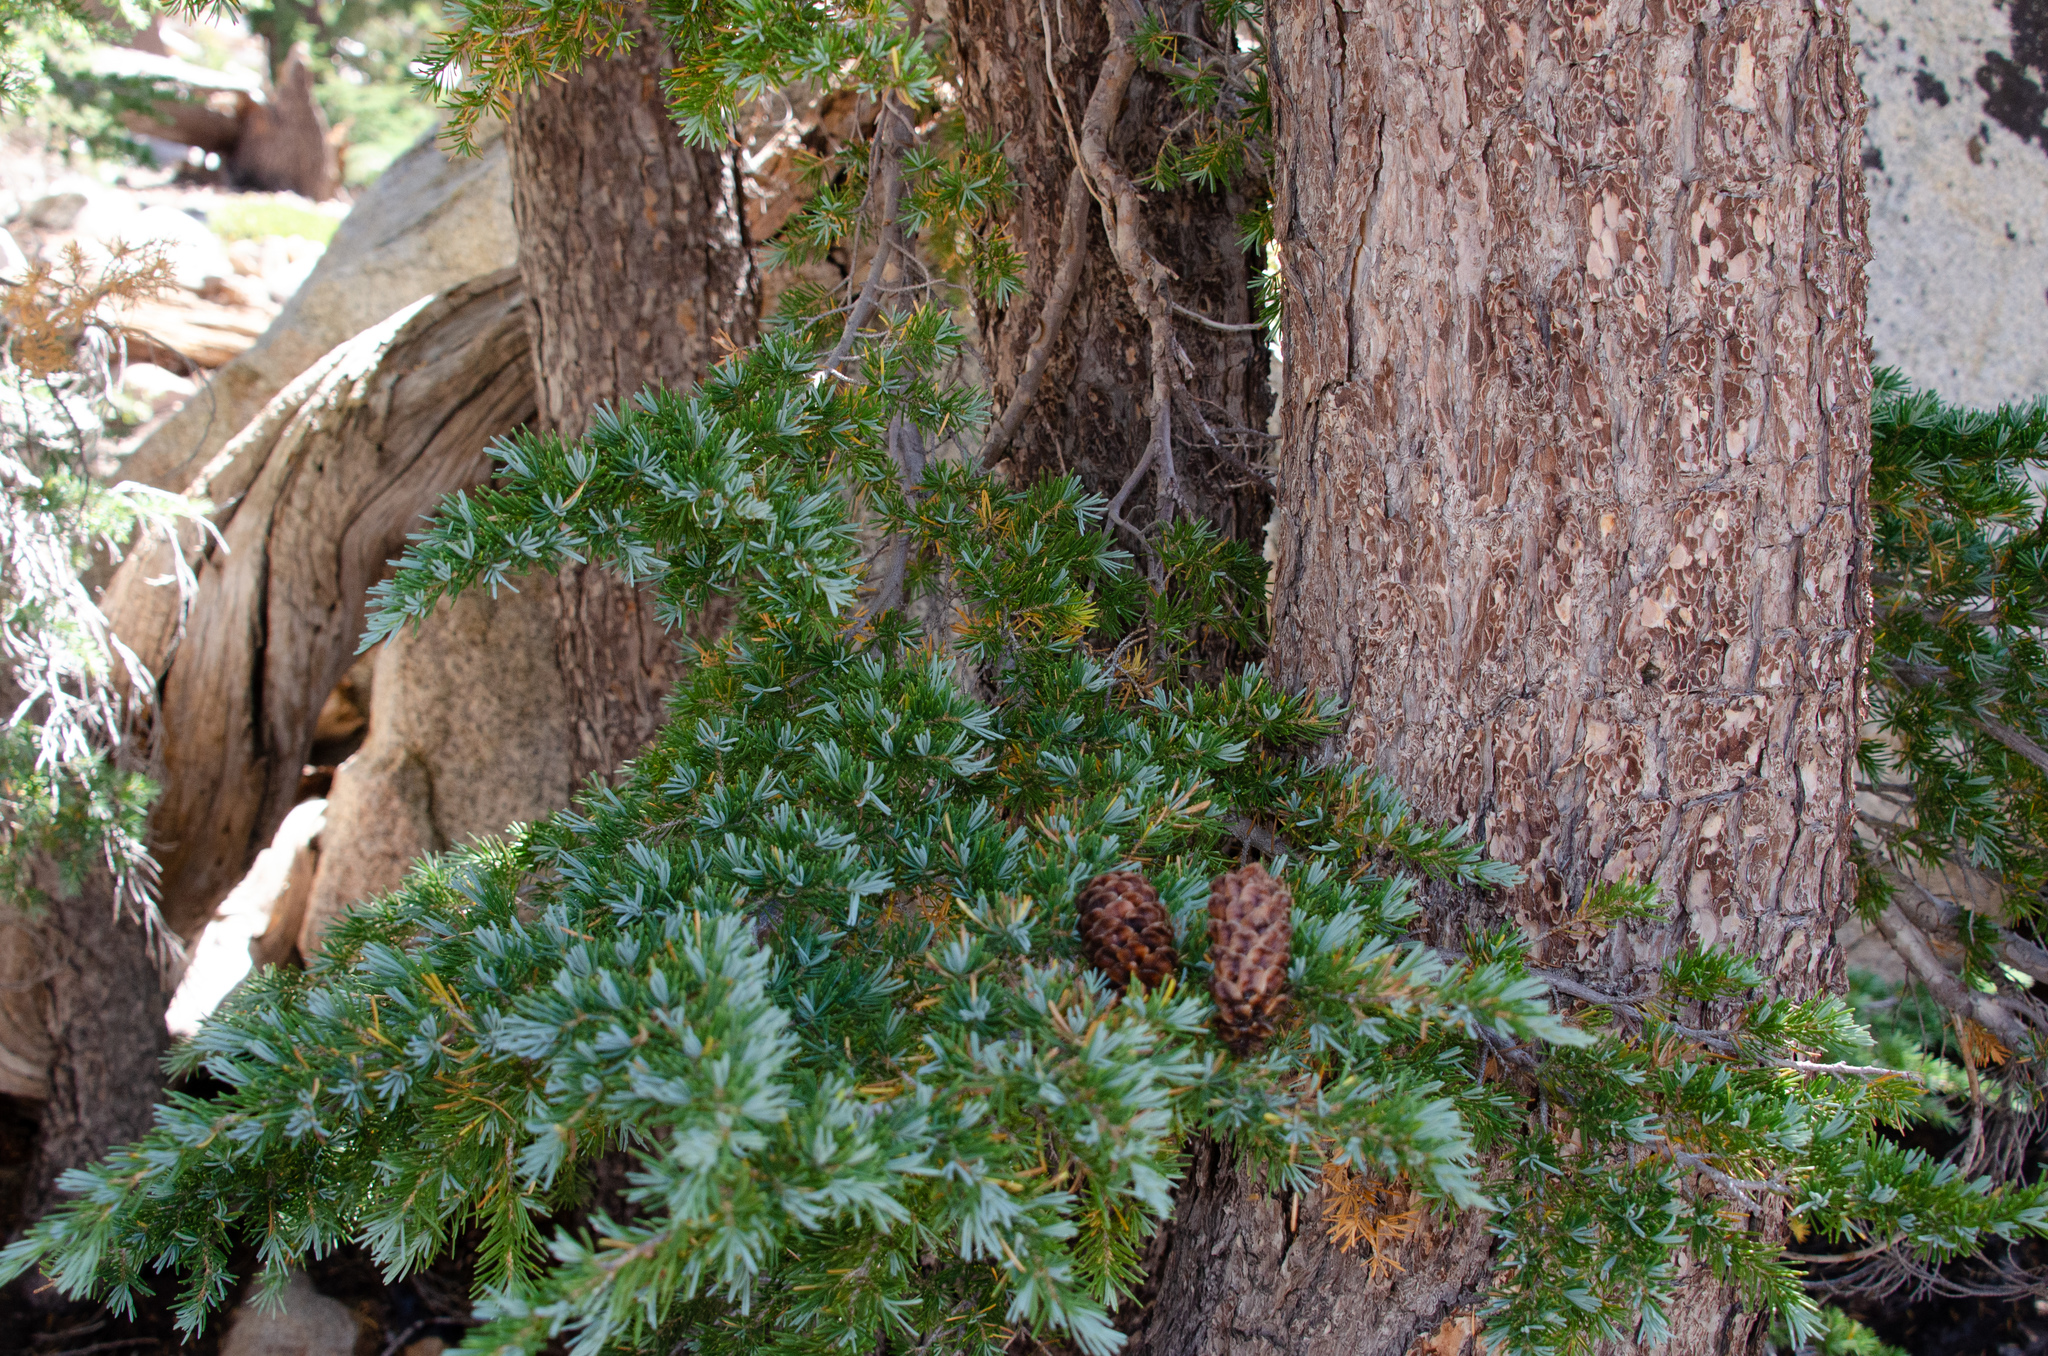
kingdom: Plantae
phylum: Tracheophyta
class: Pinopsida
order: Pinales
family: Pinaceae
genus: Tsuga
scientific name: Tsuga mertensiana
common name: Mountain hemlock
